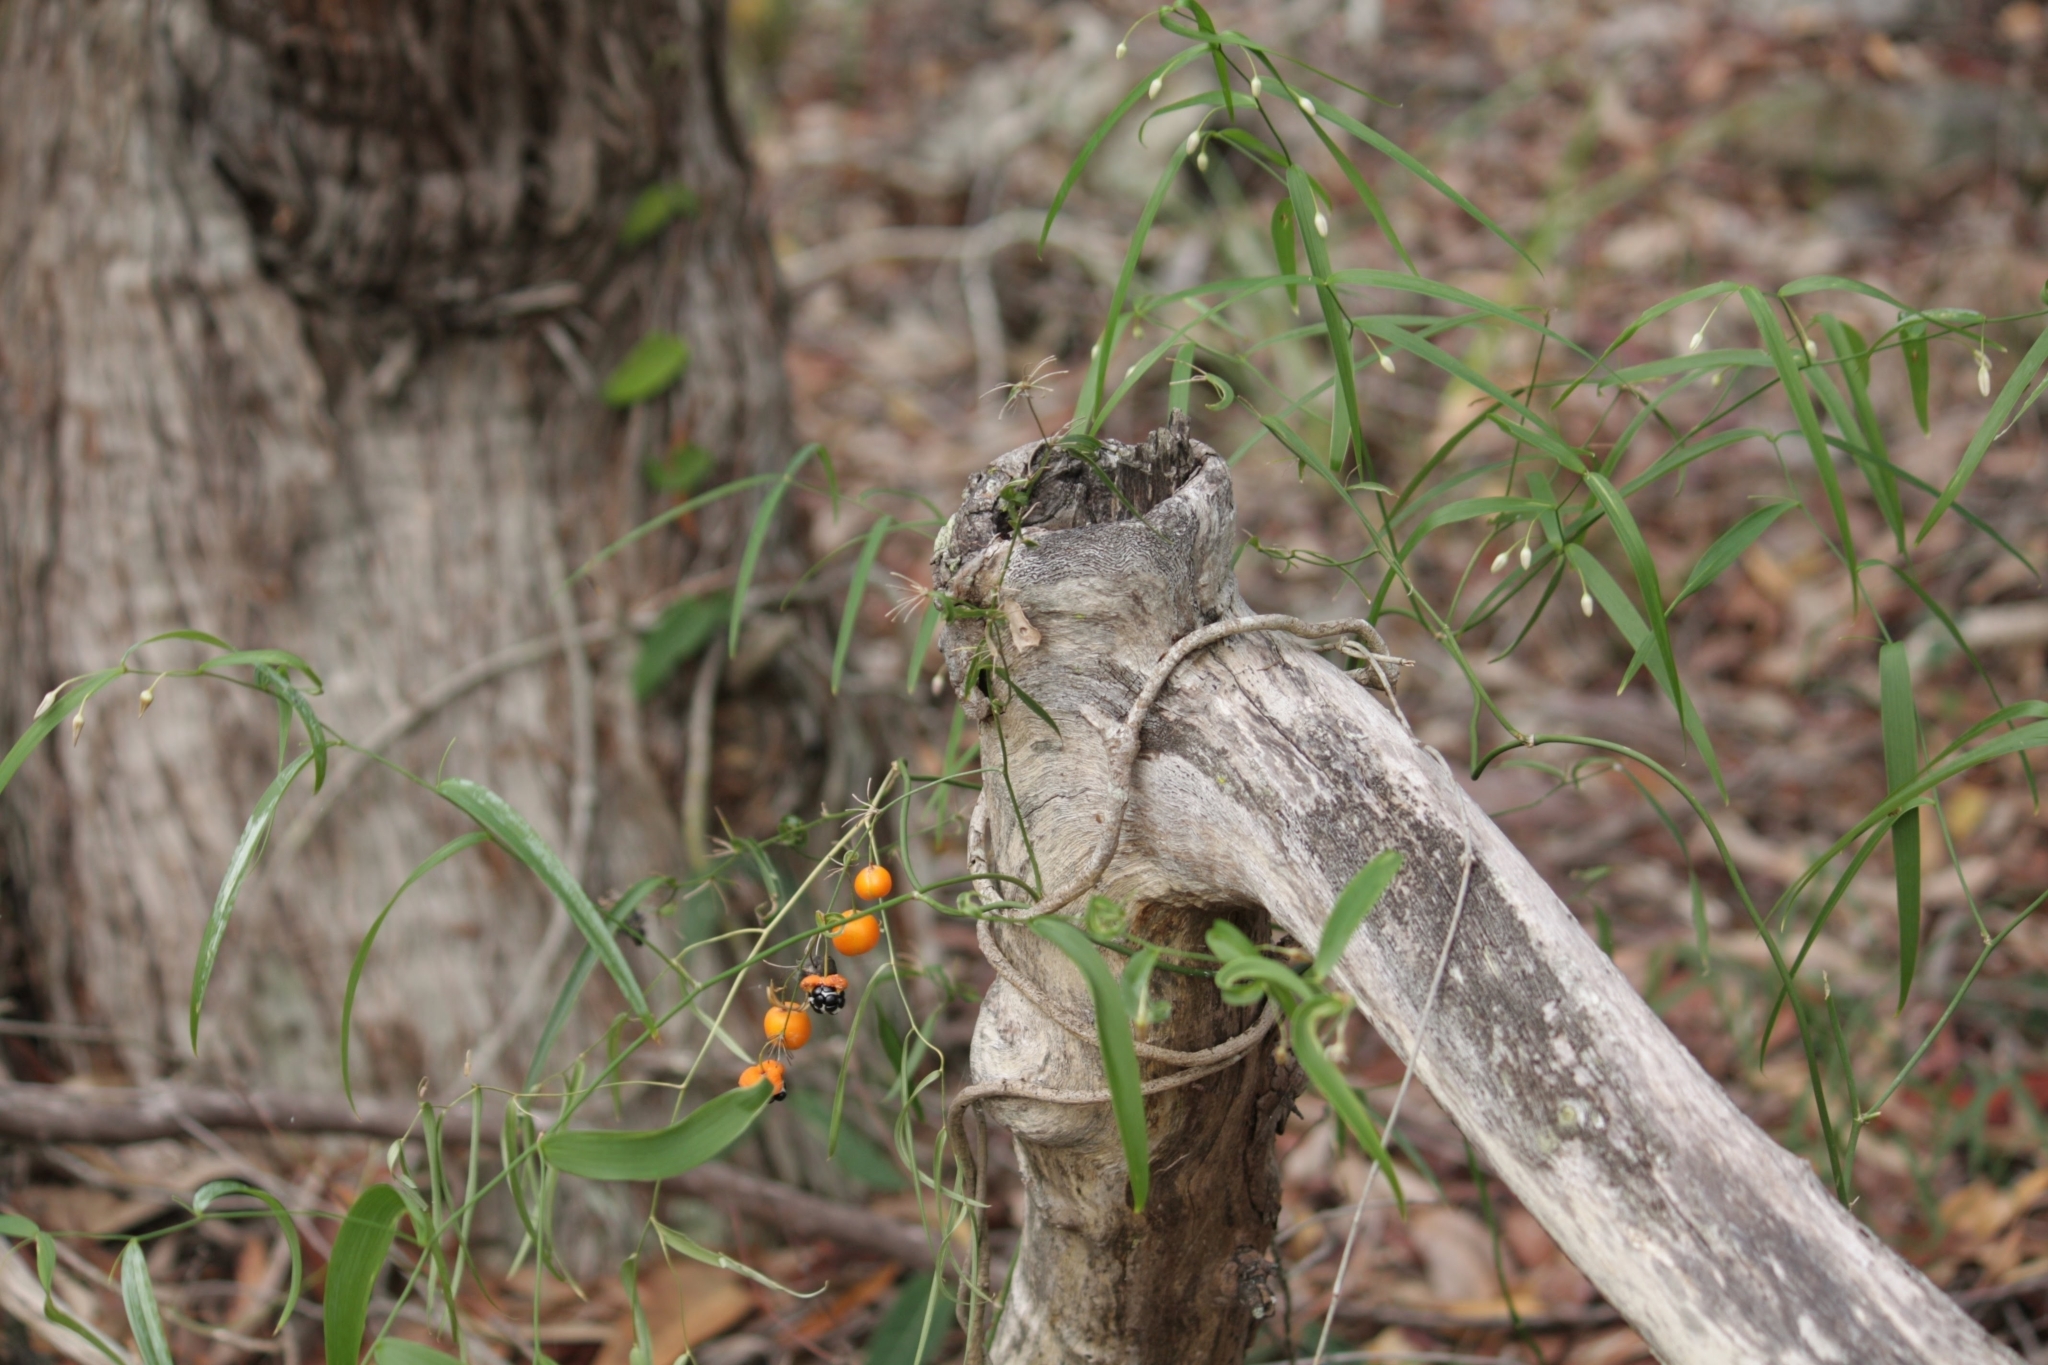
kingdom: Plantae
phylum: Tracheophyta
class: Liliopsida
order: Asparagales
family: Asparagaceae
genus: Eustrephus
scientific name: Eustrephus latifolius
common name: Orangevine
